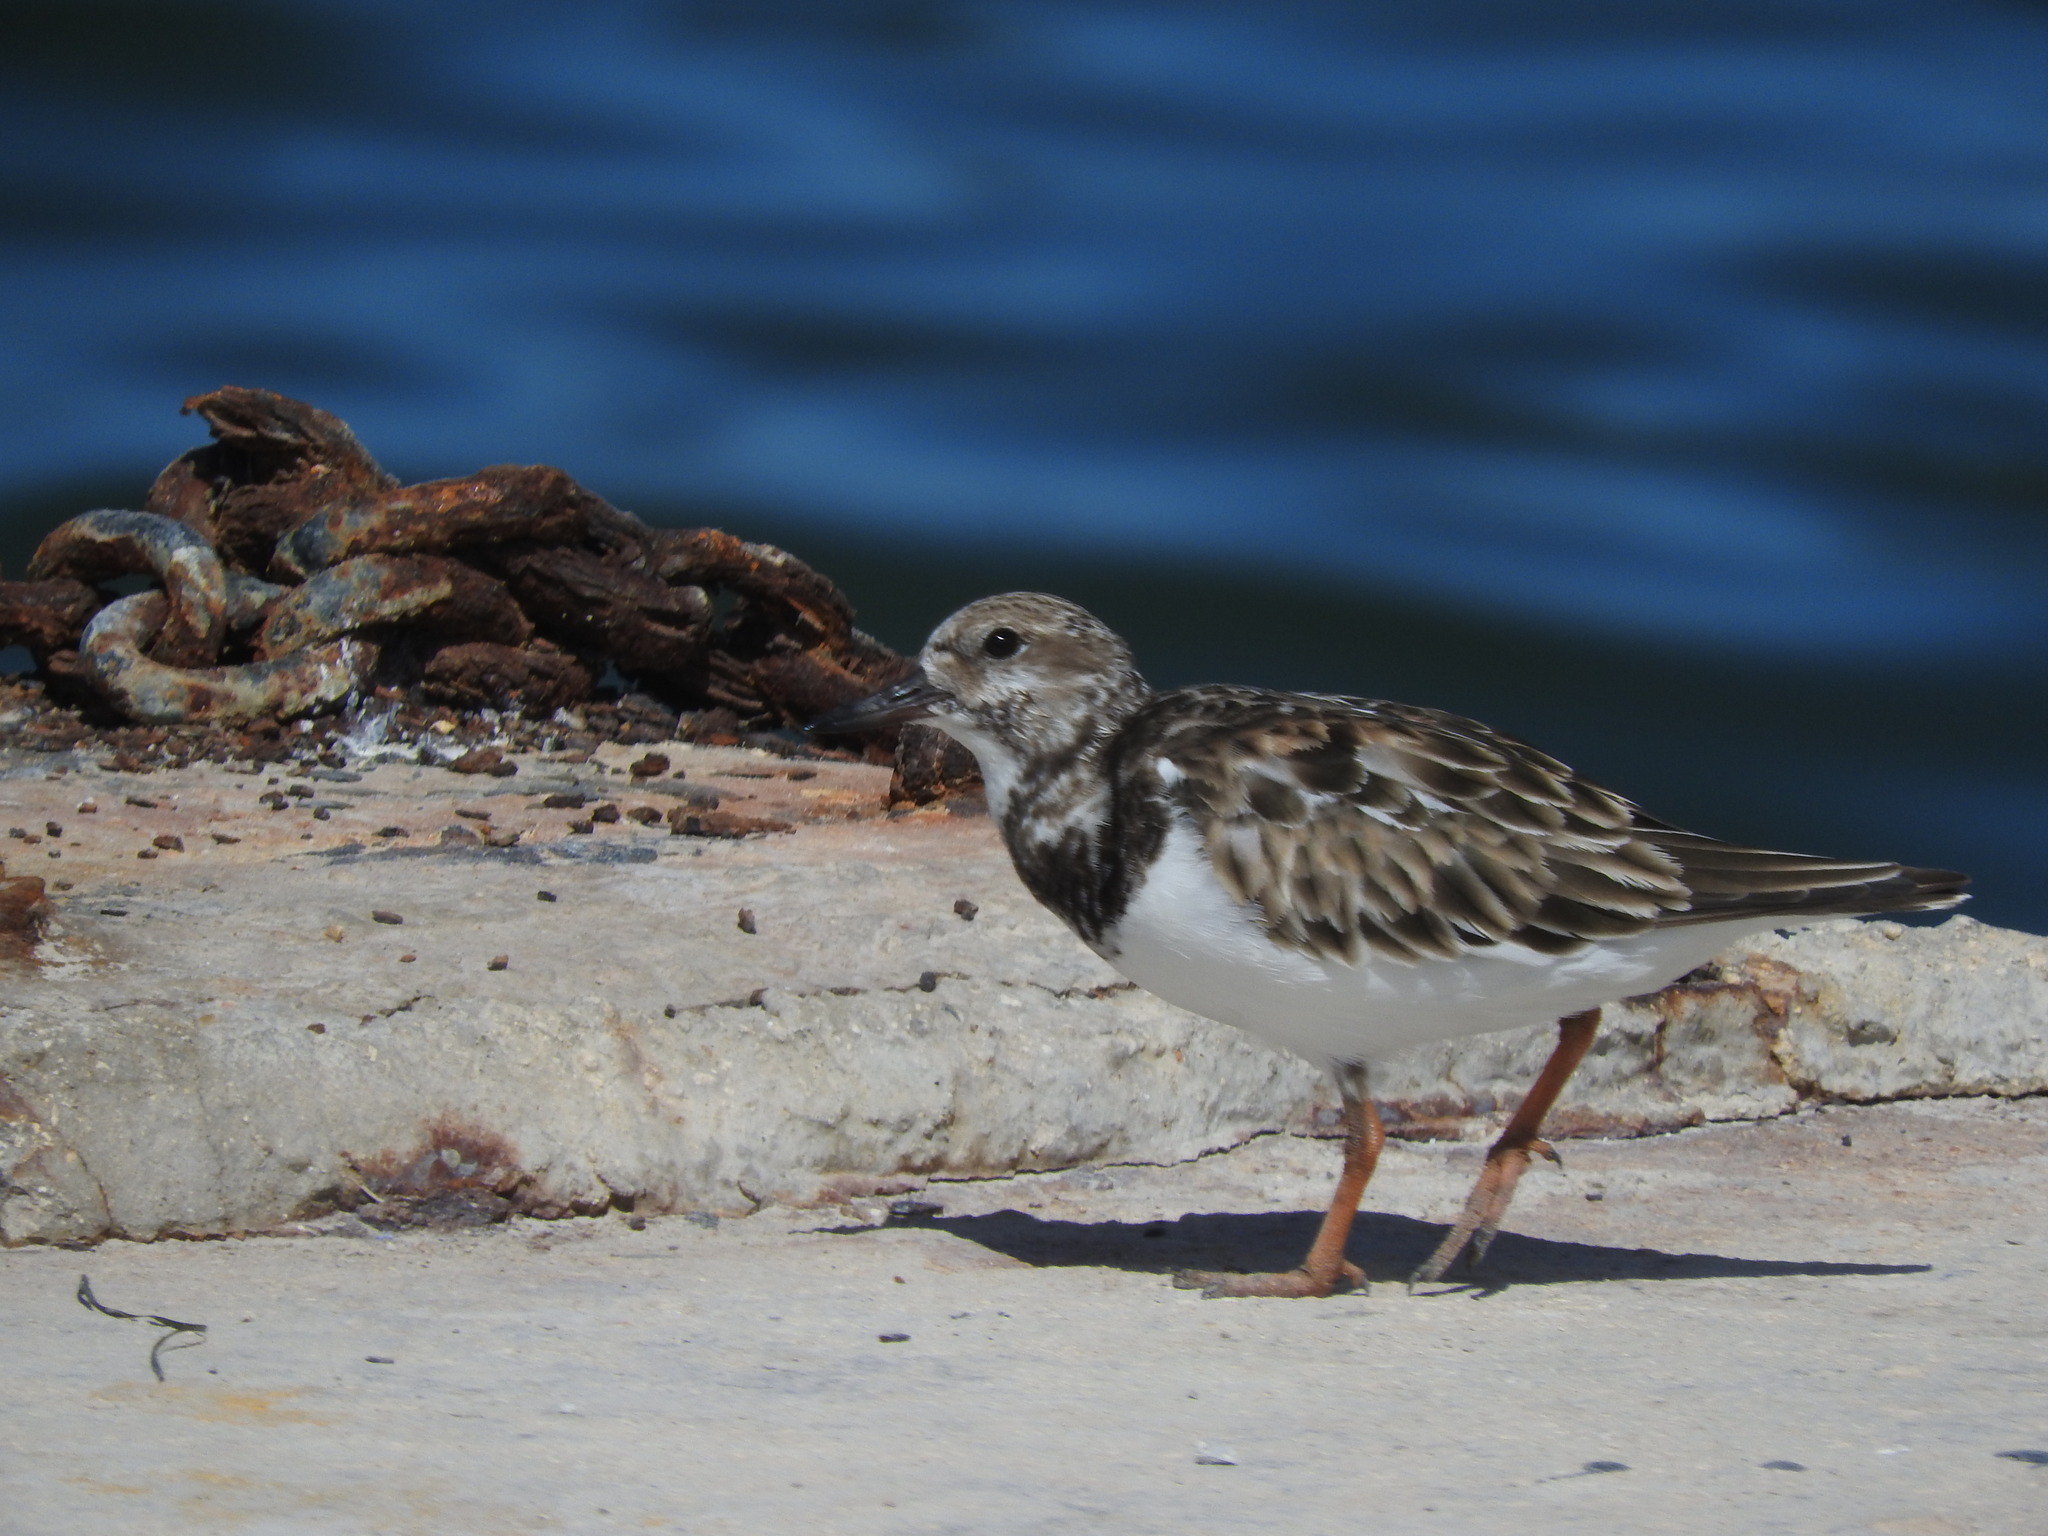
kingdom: Animalia
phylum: Chordata
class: Aves
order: Charadriiformes
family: Scolopacidae
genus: Arenaria
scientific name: Arenaria interpres
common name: Ruddy turnstone
